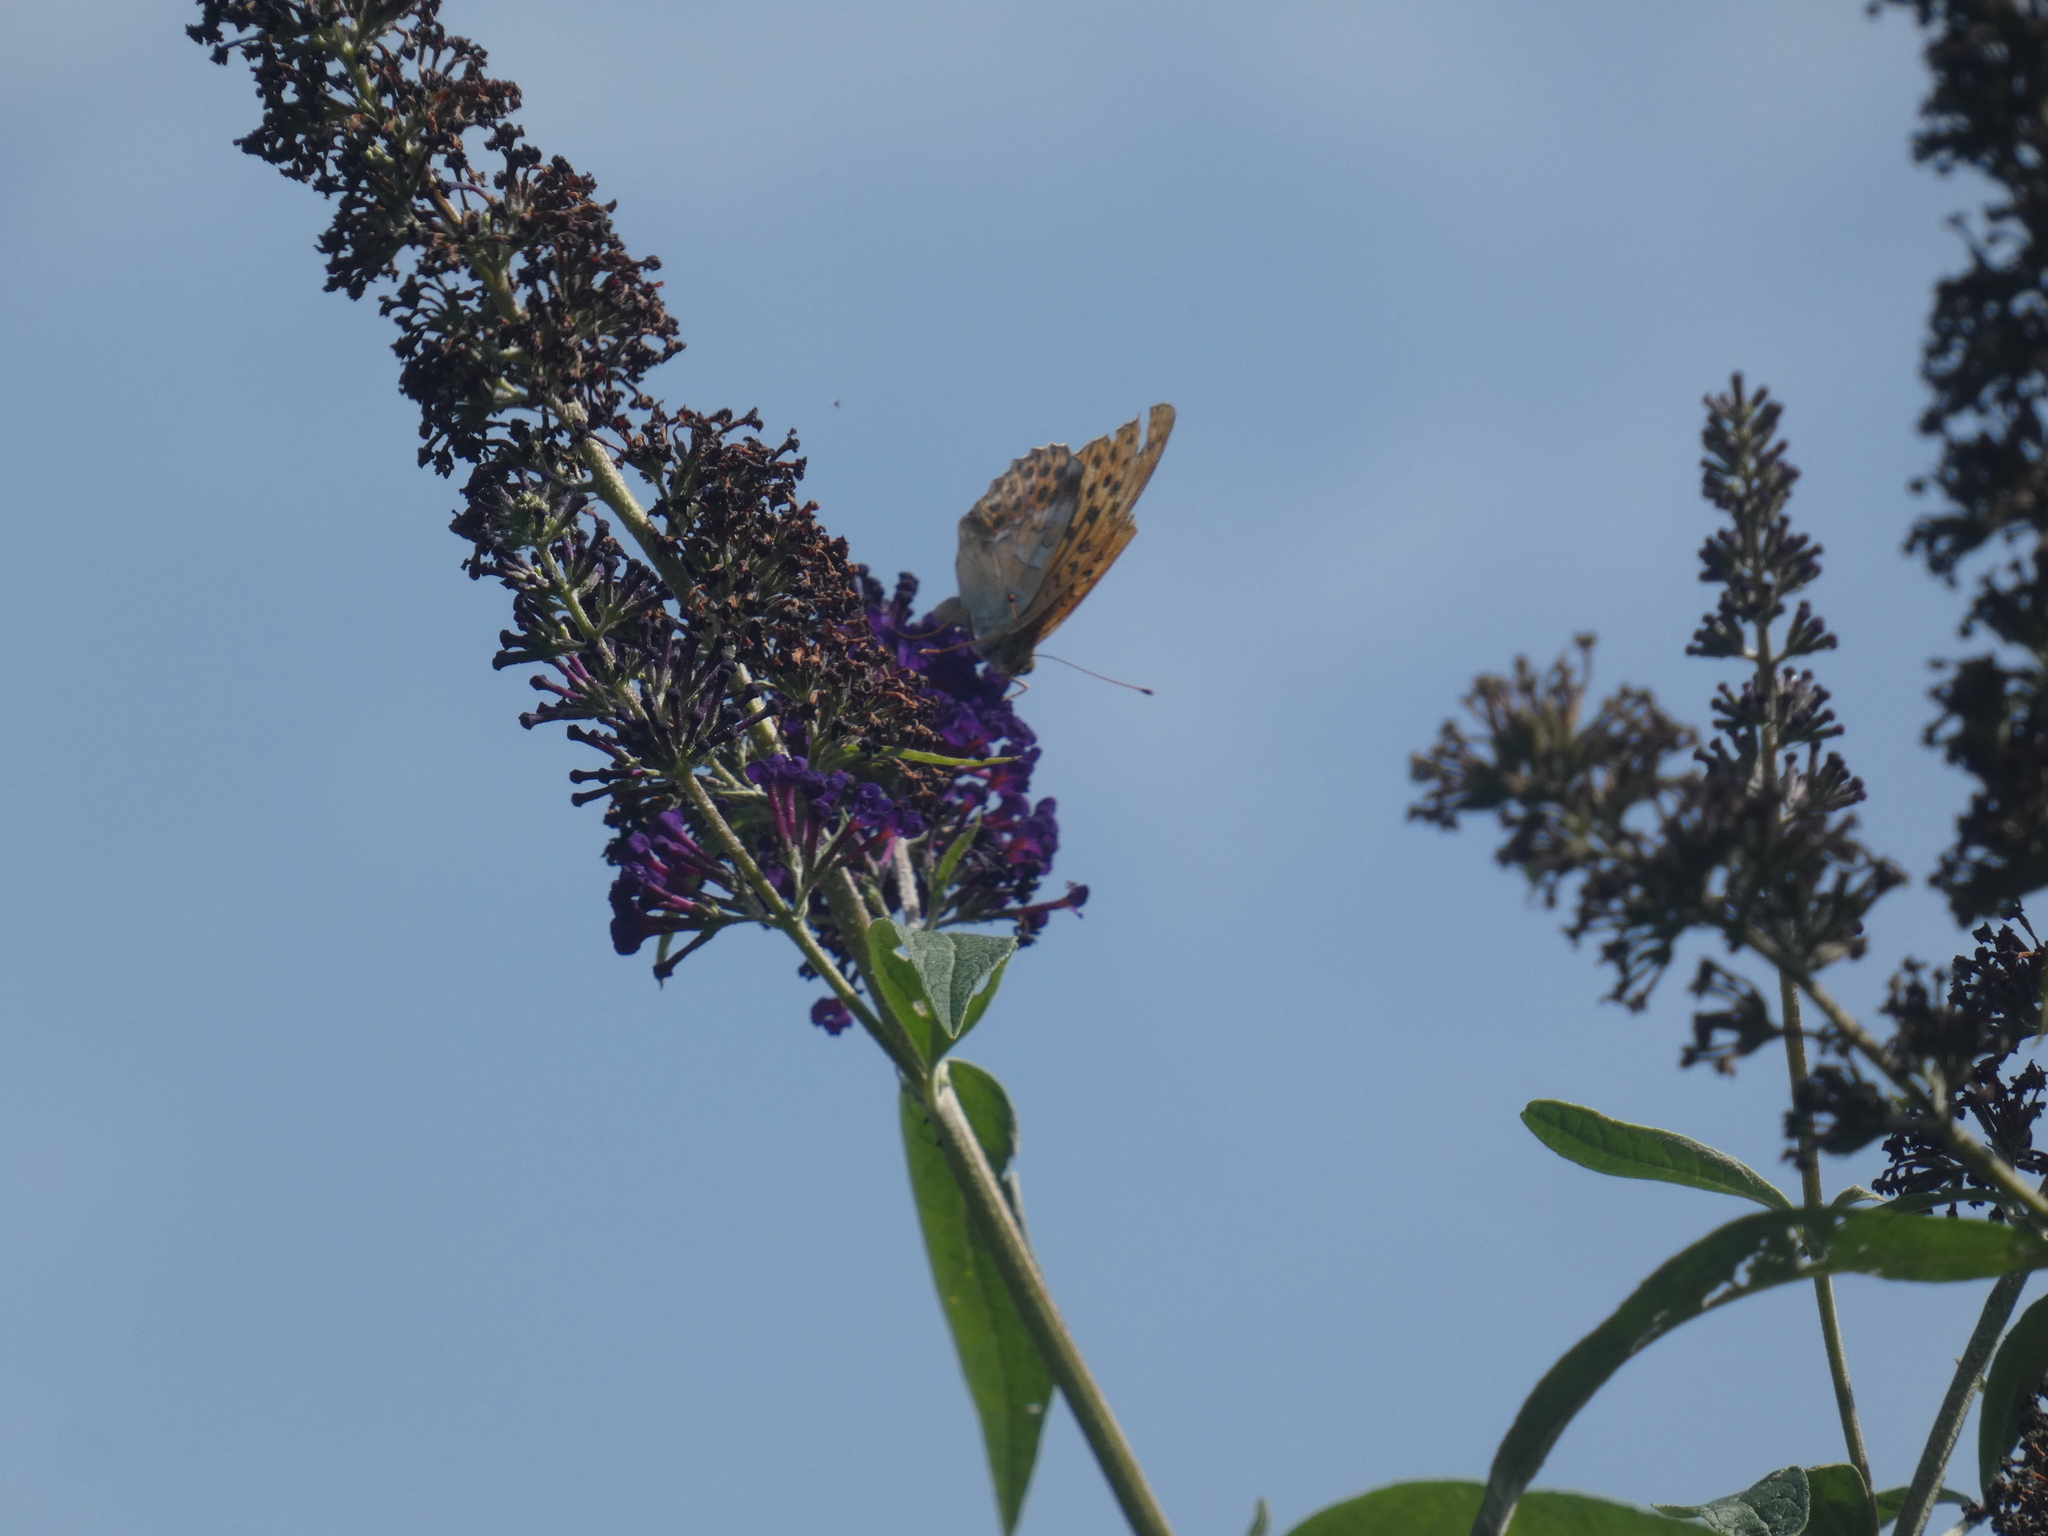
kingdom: Animalia
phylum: Arthropoda
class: Insecta
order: Lepidoptera
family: Nymphalidae
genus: Argynnis
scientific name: Argynnis paphia
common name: Silver-washed fritillary
